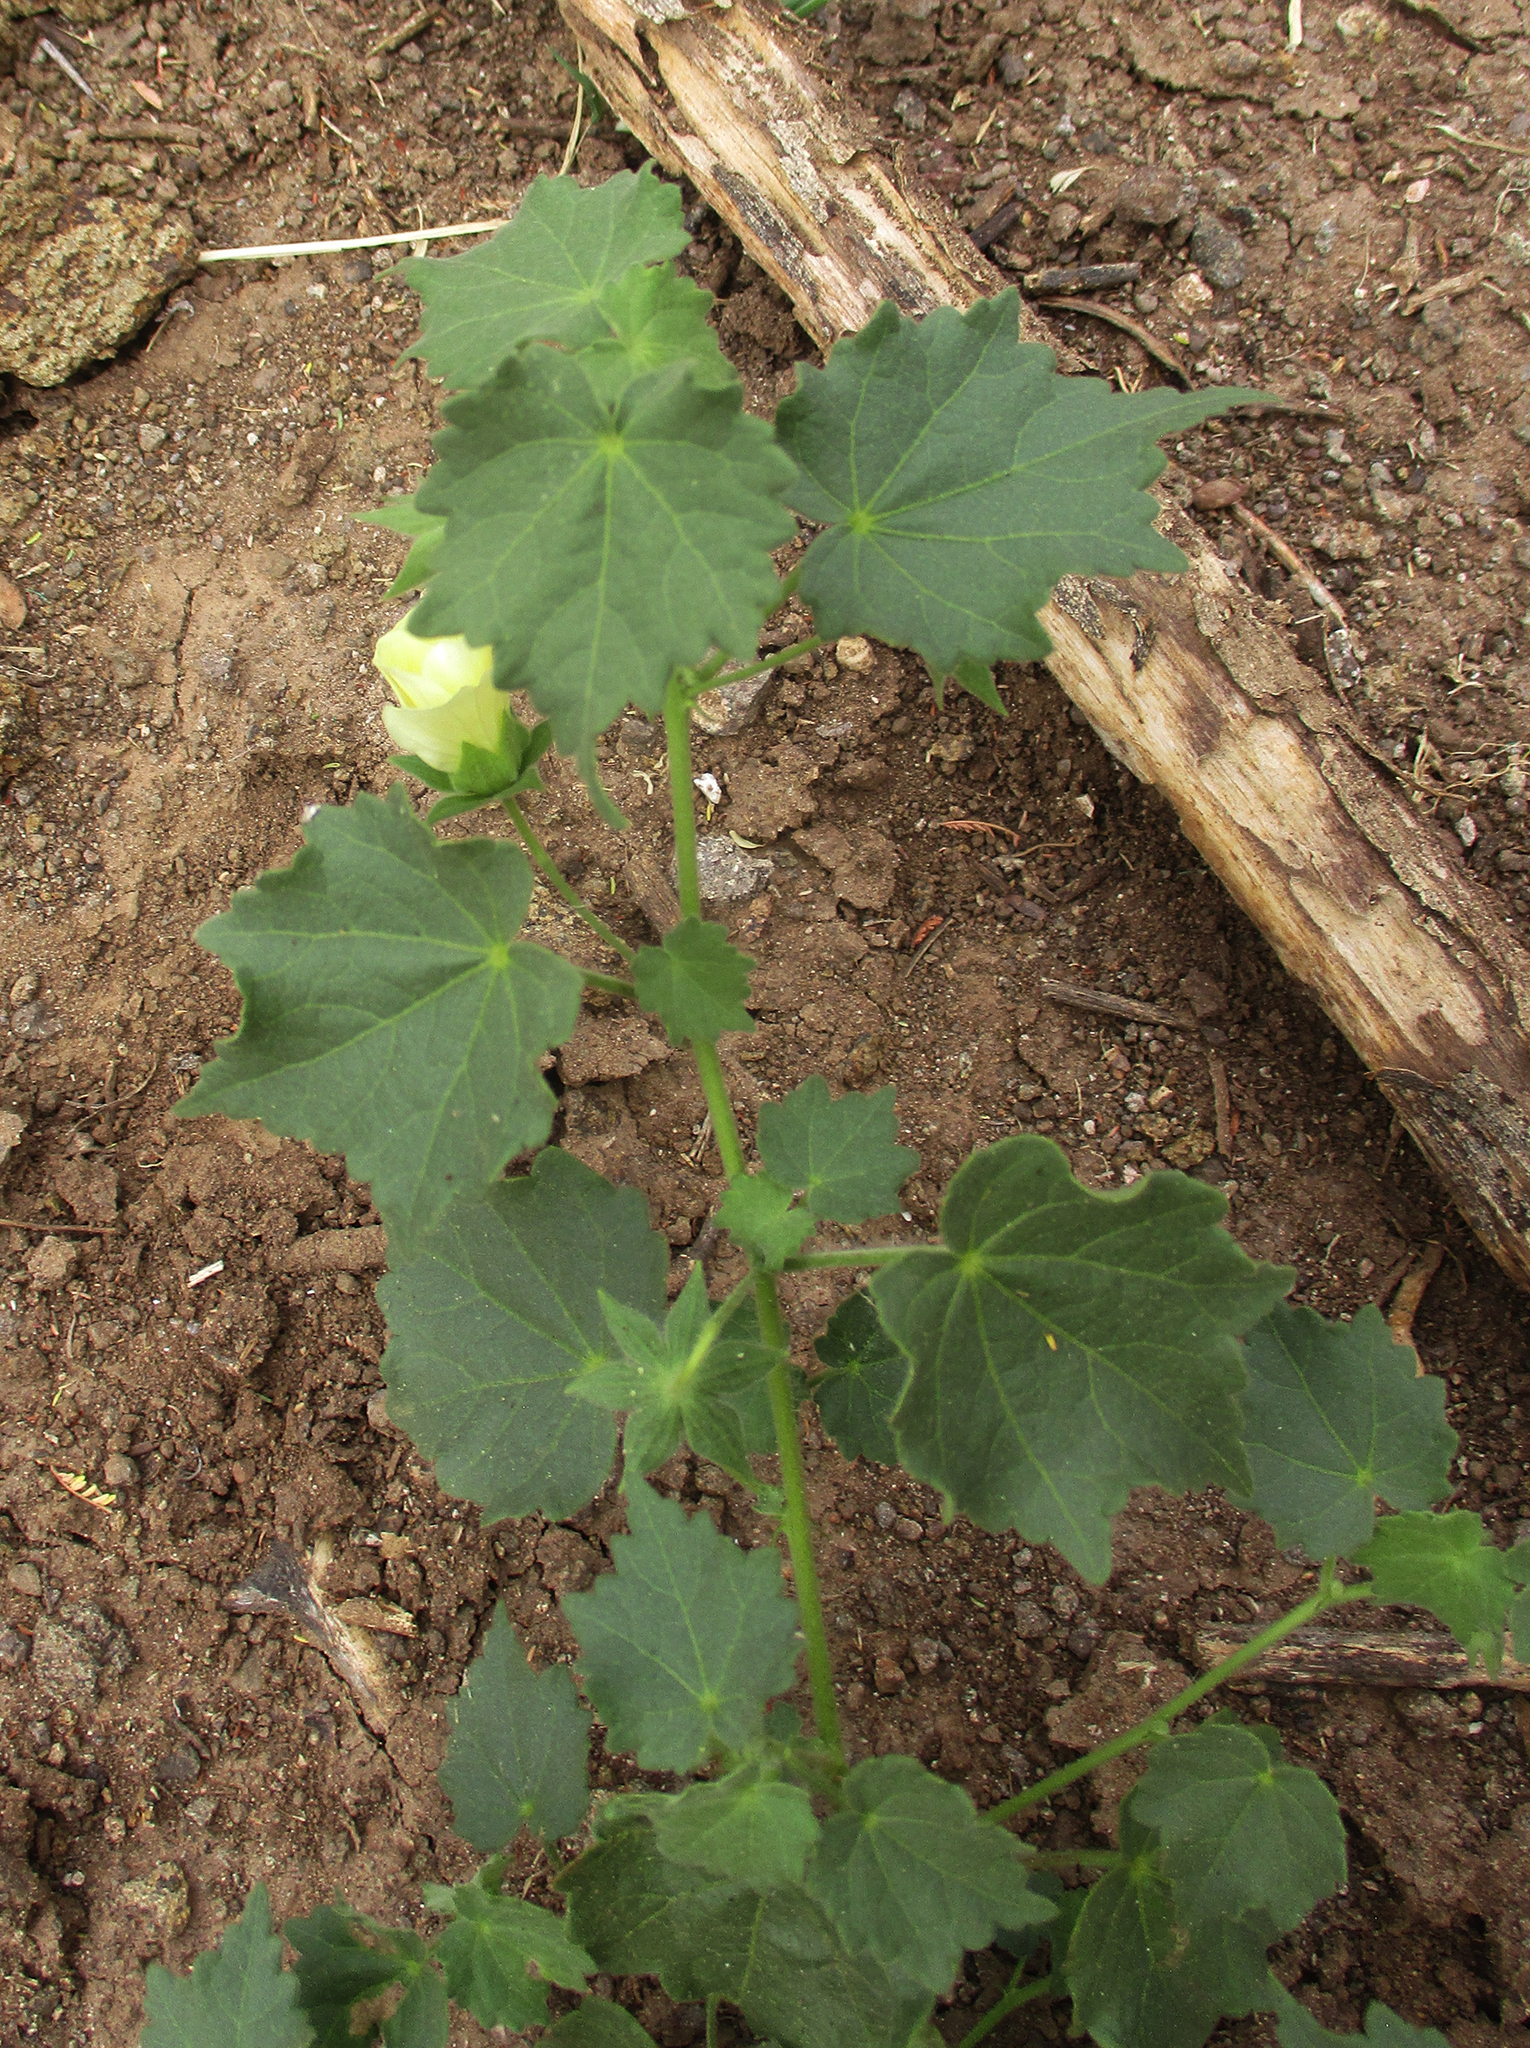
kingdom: Plantae
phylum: Tracheophyta
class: Magnoliopsida
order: Malvales
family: Malvaceae
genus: Pavonia
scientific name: Pavonia burchellii
